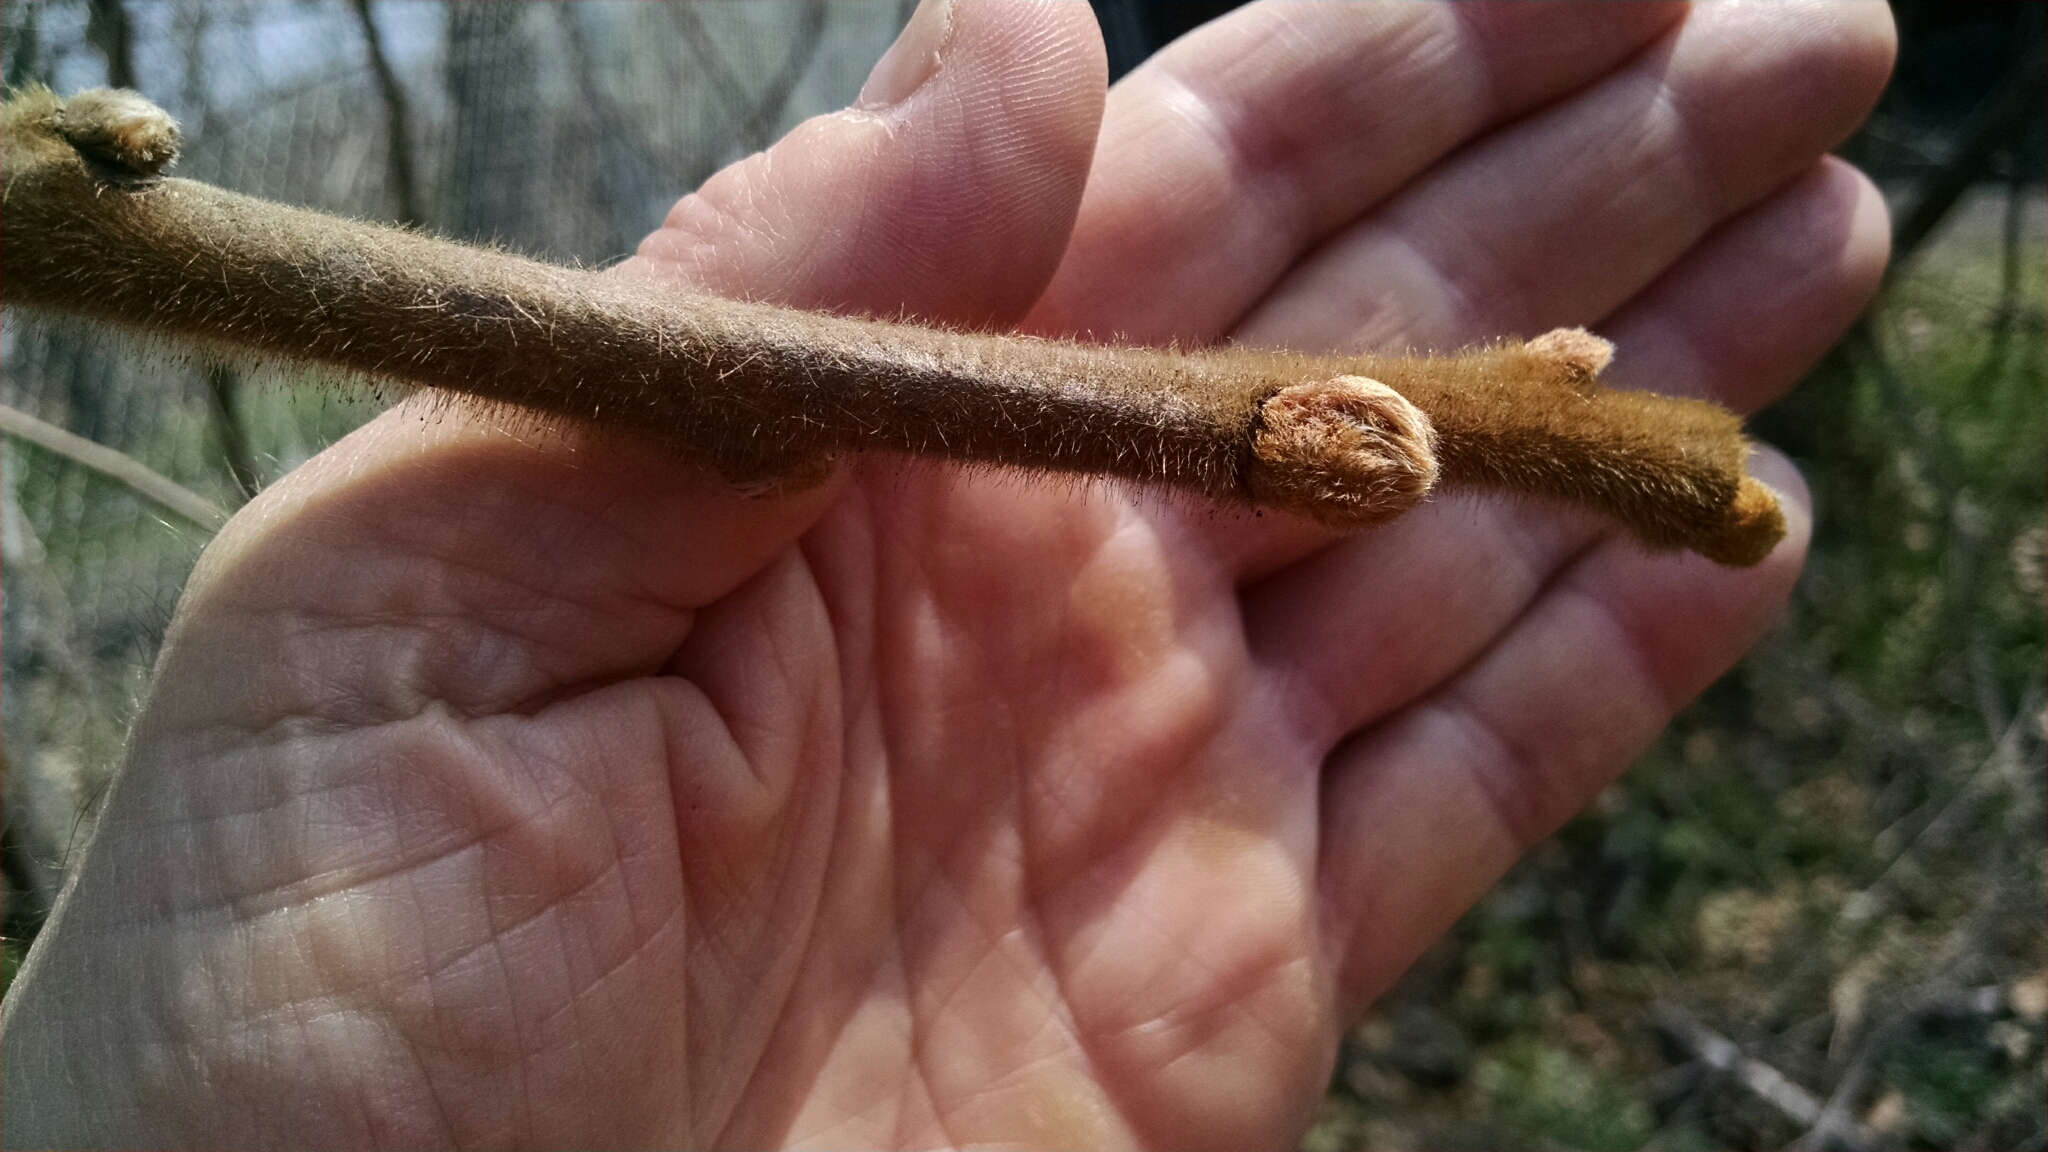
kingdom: Plantae
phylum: Tracheophyta
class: Magnoliopsida
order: Sapindales
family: Anacardiaceae
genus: Rhus
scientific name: Rhus typhina
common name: Staghorn sumac
